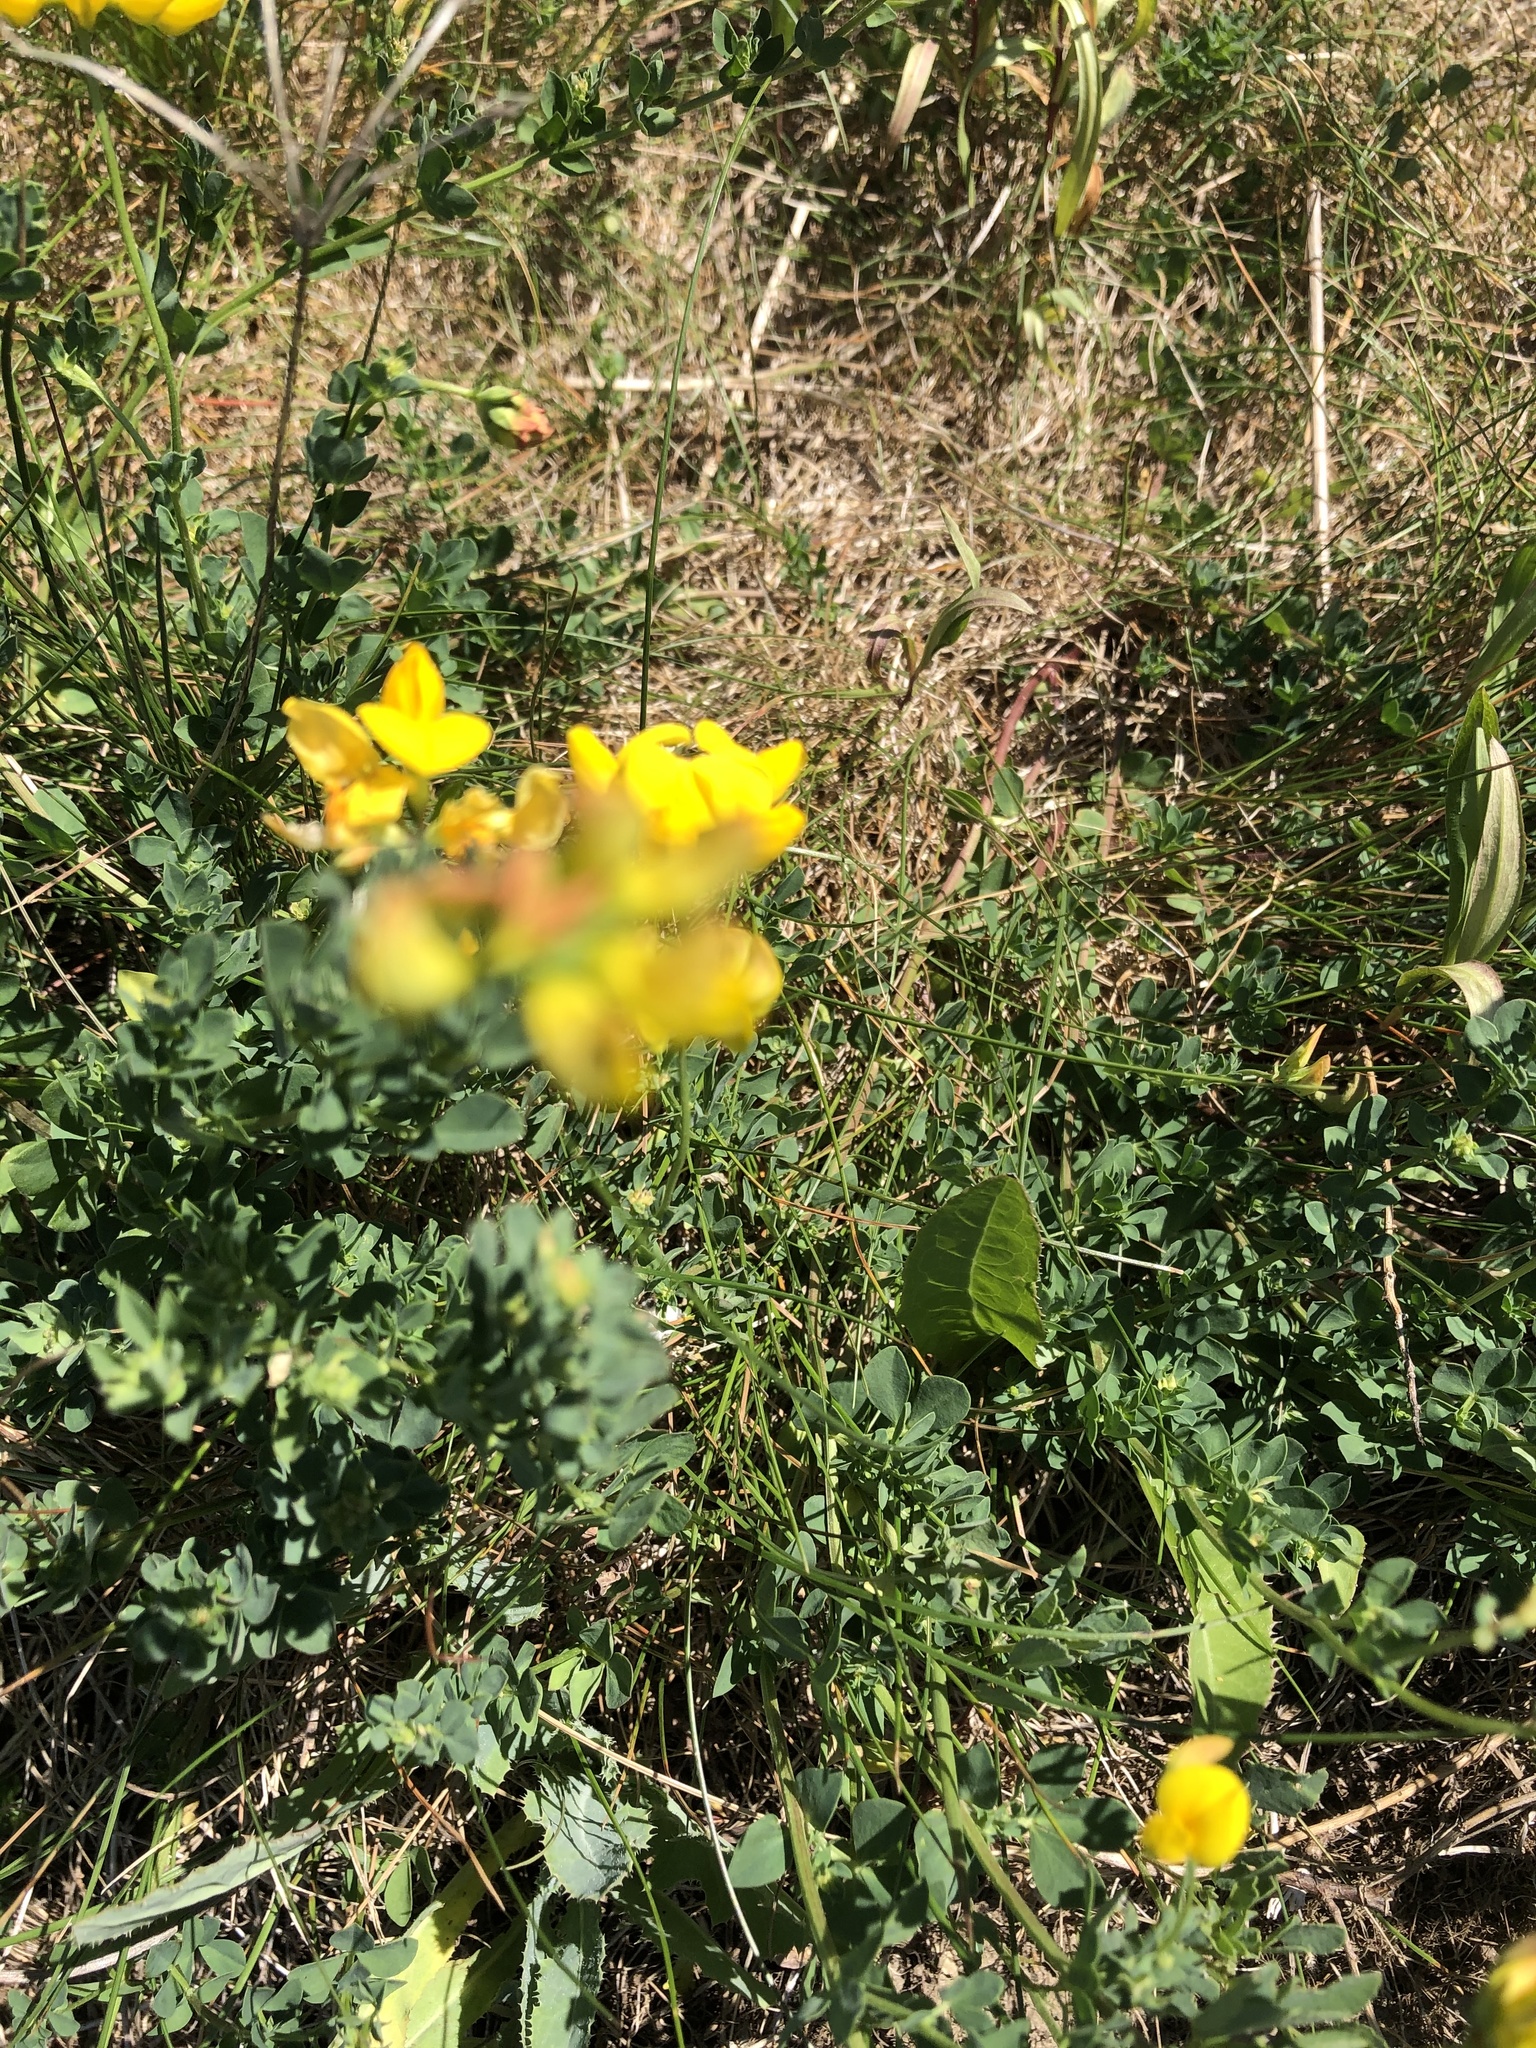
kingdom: Plantae
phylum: Tracheophyta
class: Magnoliopsida
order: Fabales
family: Fabaceae
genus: Lotus
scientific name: Lotus corniculatus
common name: Common bird's-foot-trefoil
